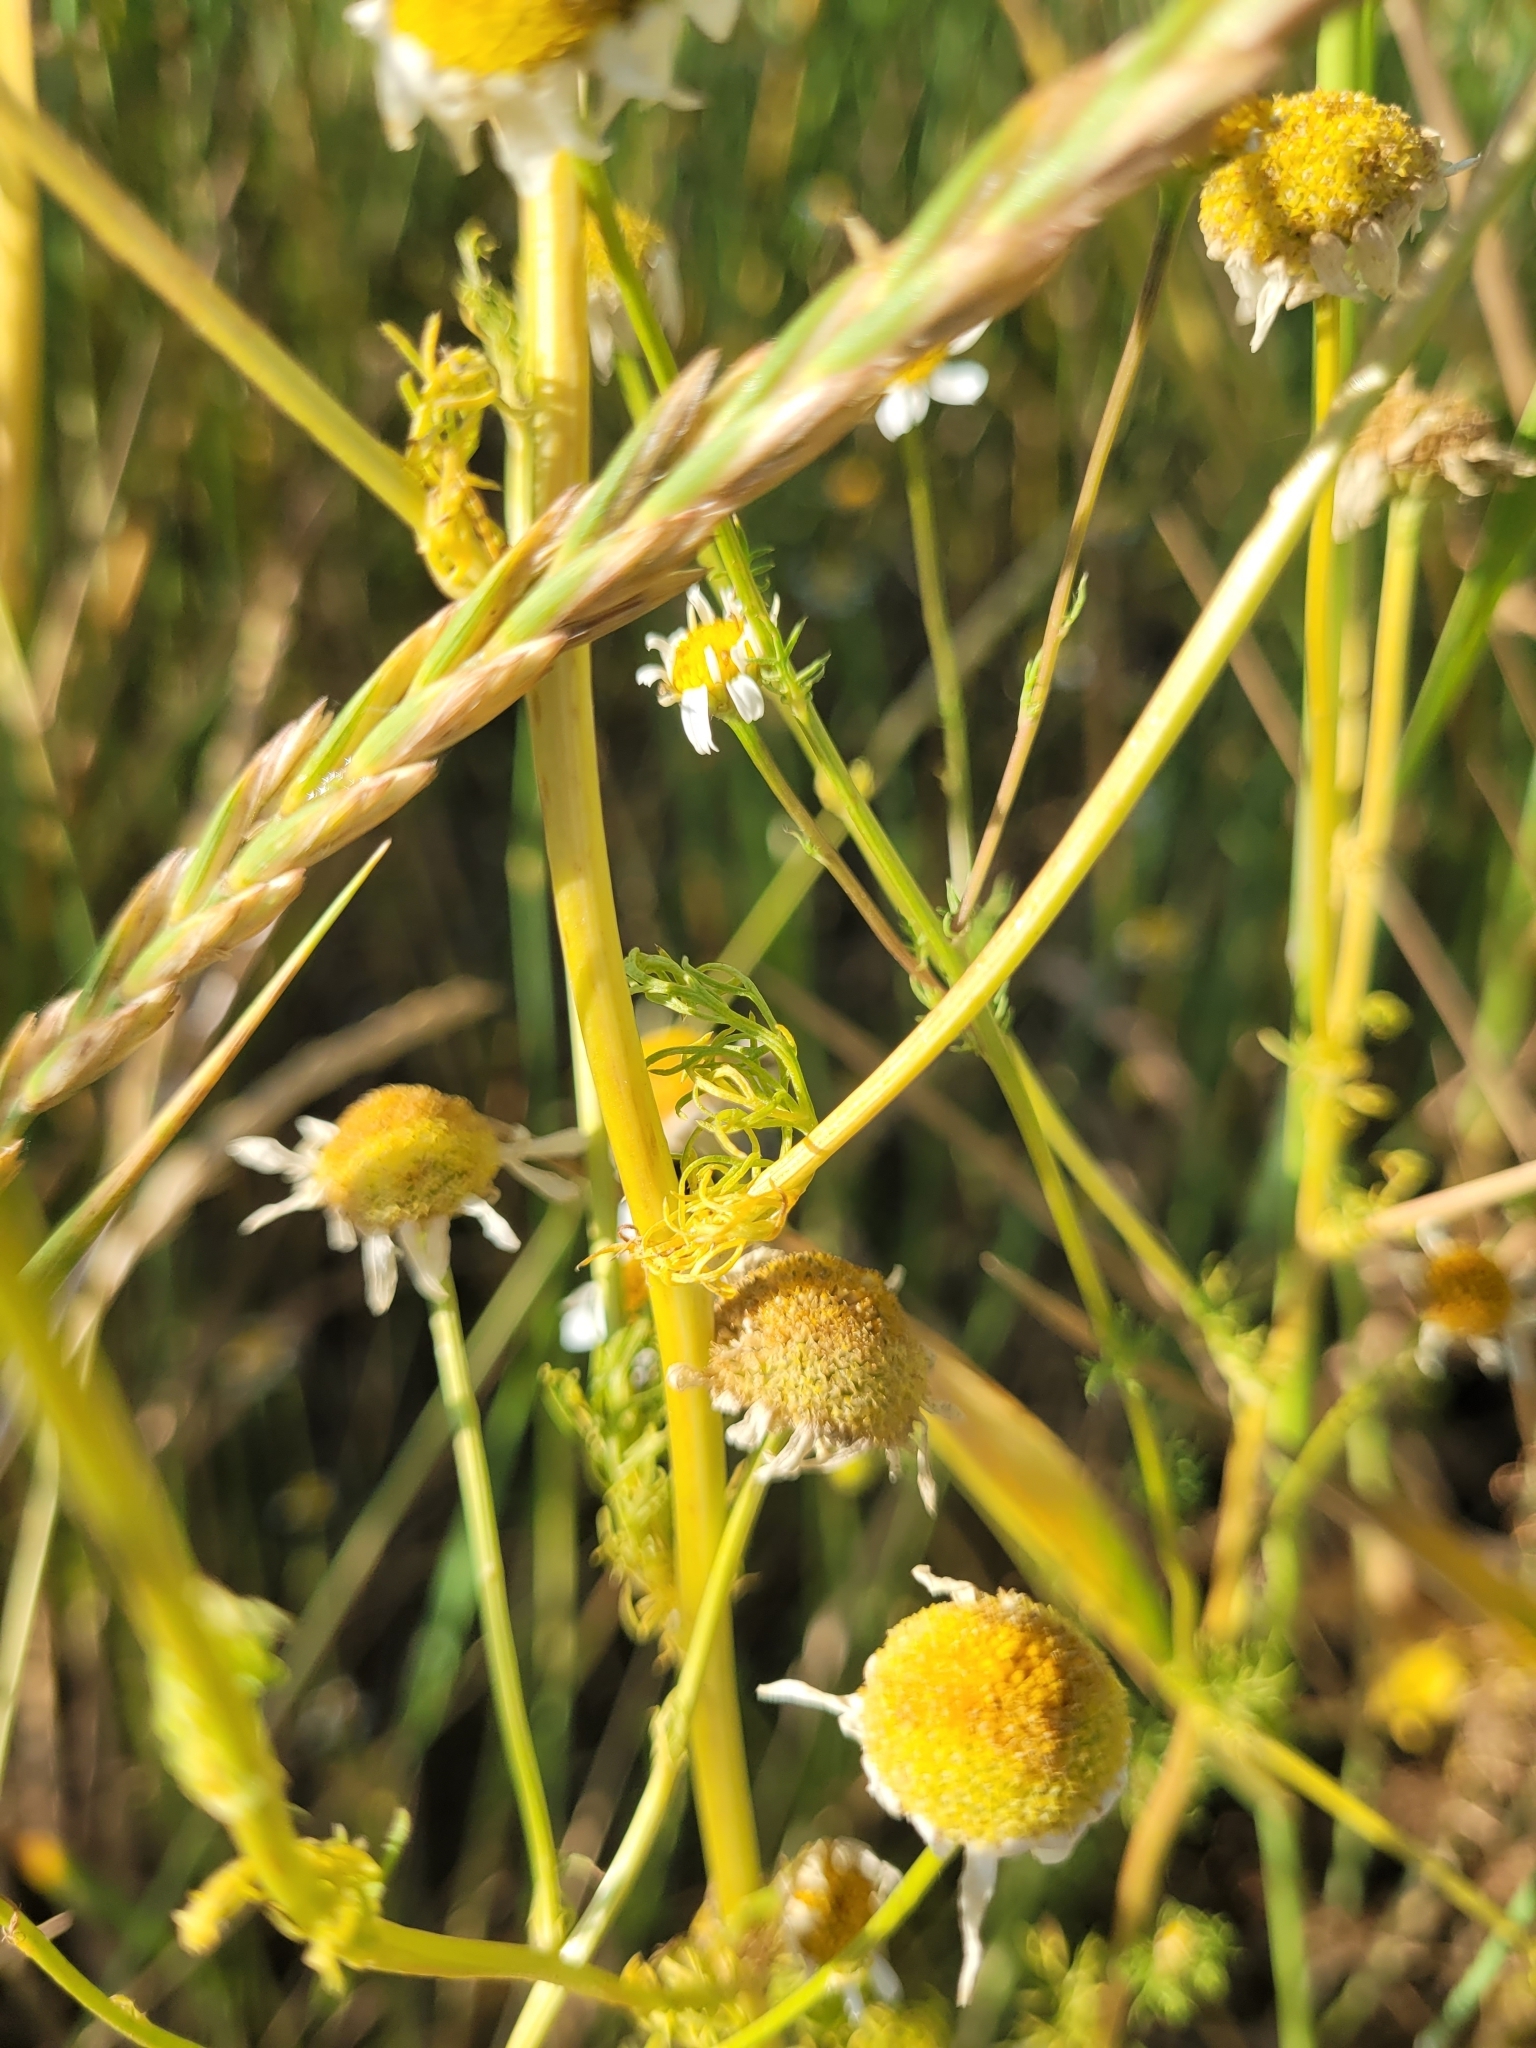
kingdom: Plantae
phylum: Tracheophyta
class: Magnoliopsida
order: Asterales
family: Asteraceae
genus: Tripleurospermum
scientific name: Tripleurospermum inodorum
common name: Scentless mayweed
